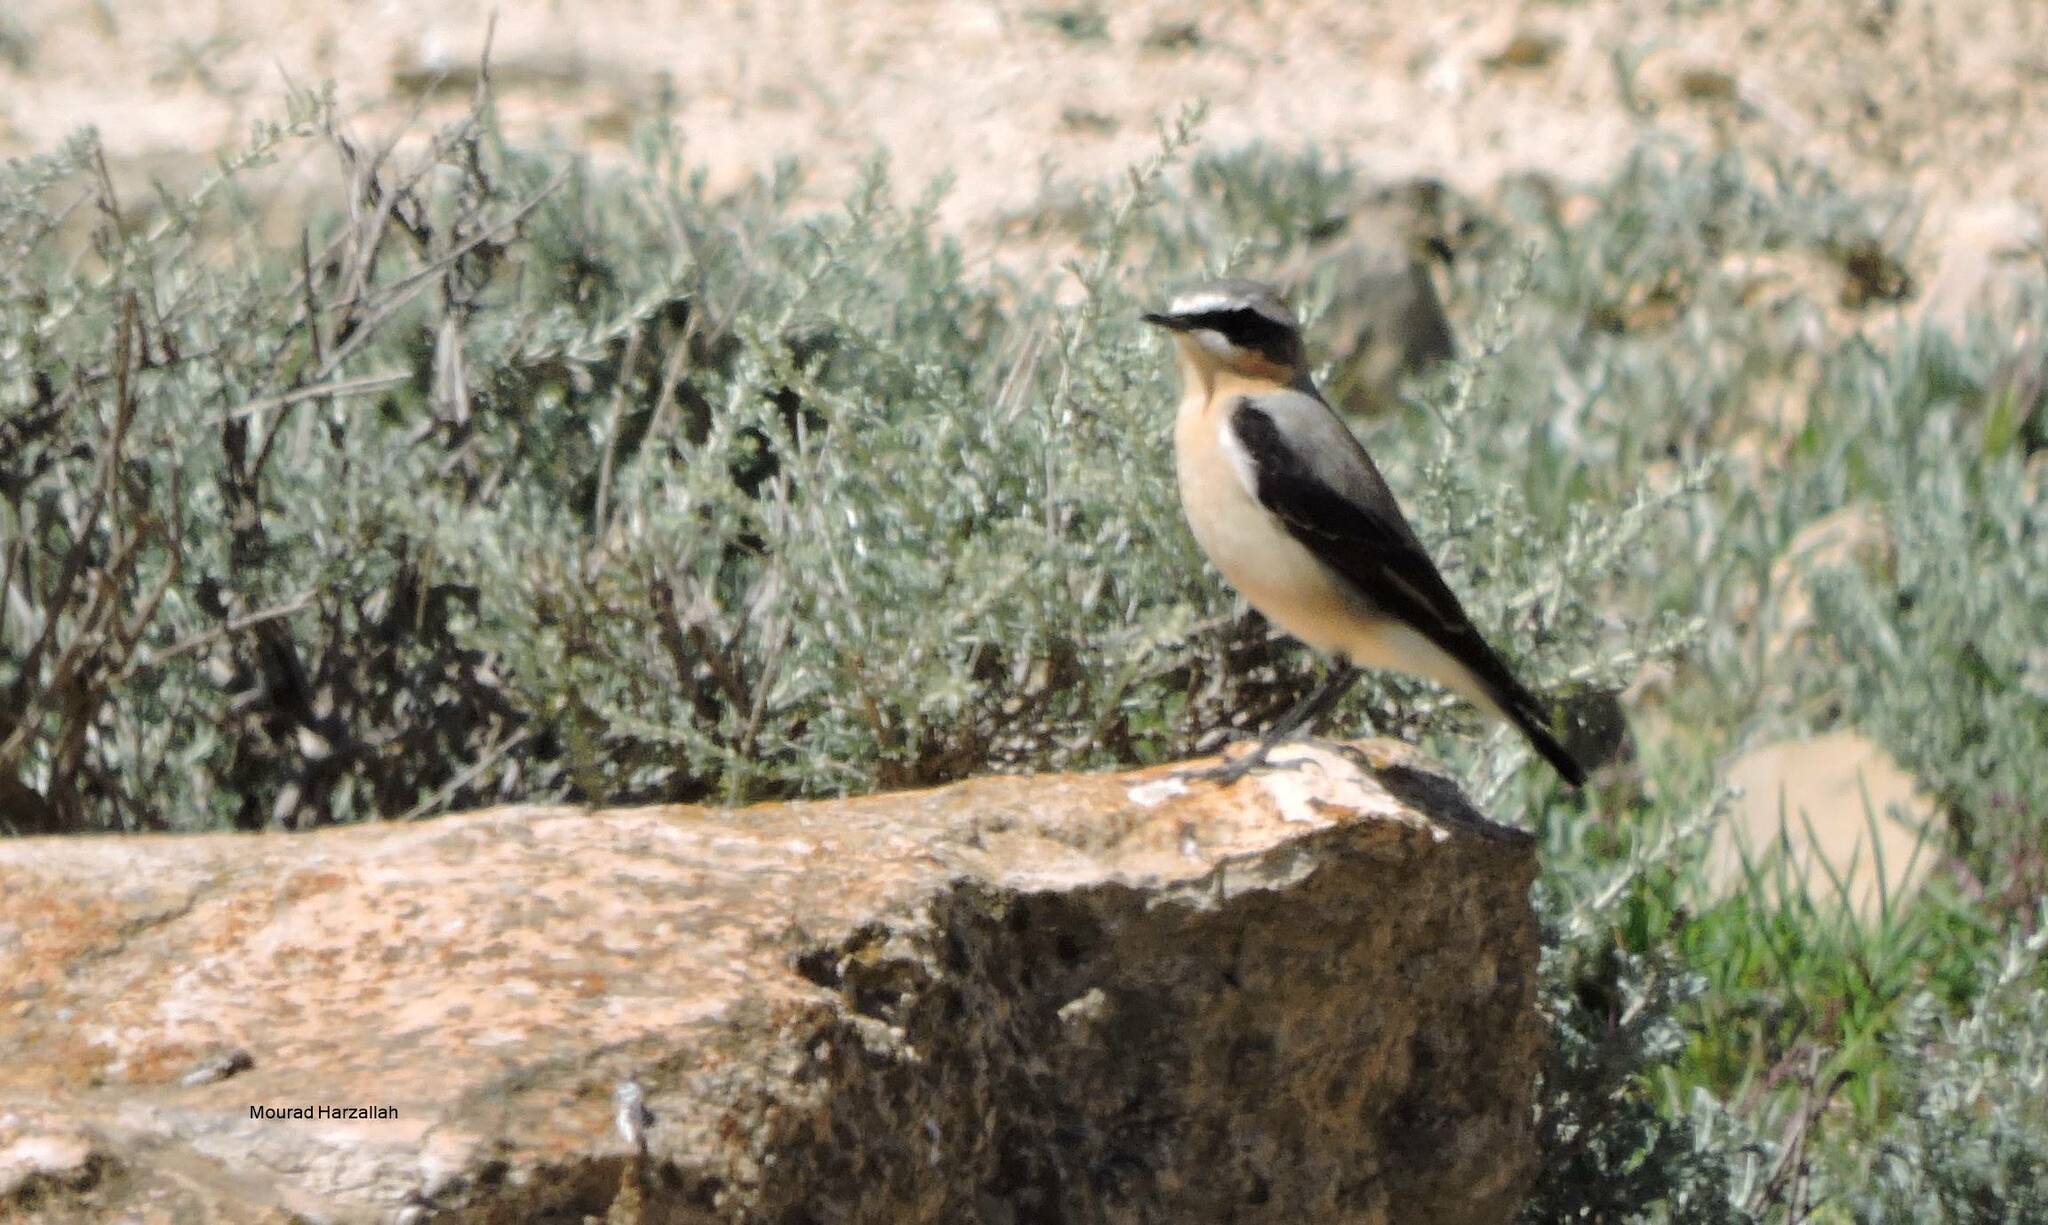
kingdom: Animalia
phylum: Chordata
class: Aves
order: Passeriformes
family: Muscicapidae
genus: Oenanthe
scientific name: Oenanthe oenanthe
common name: Northern wheatear
